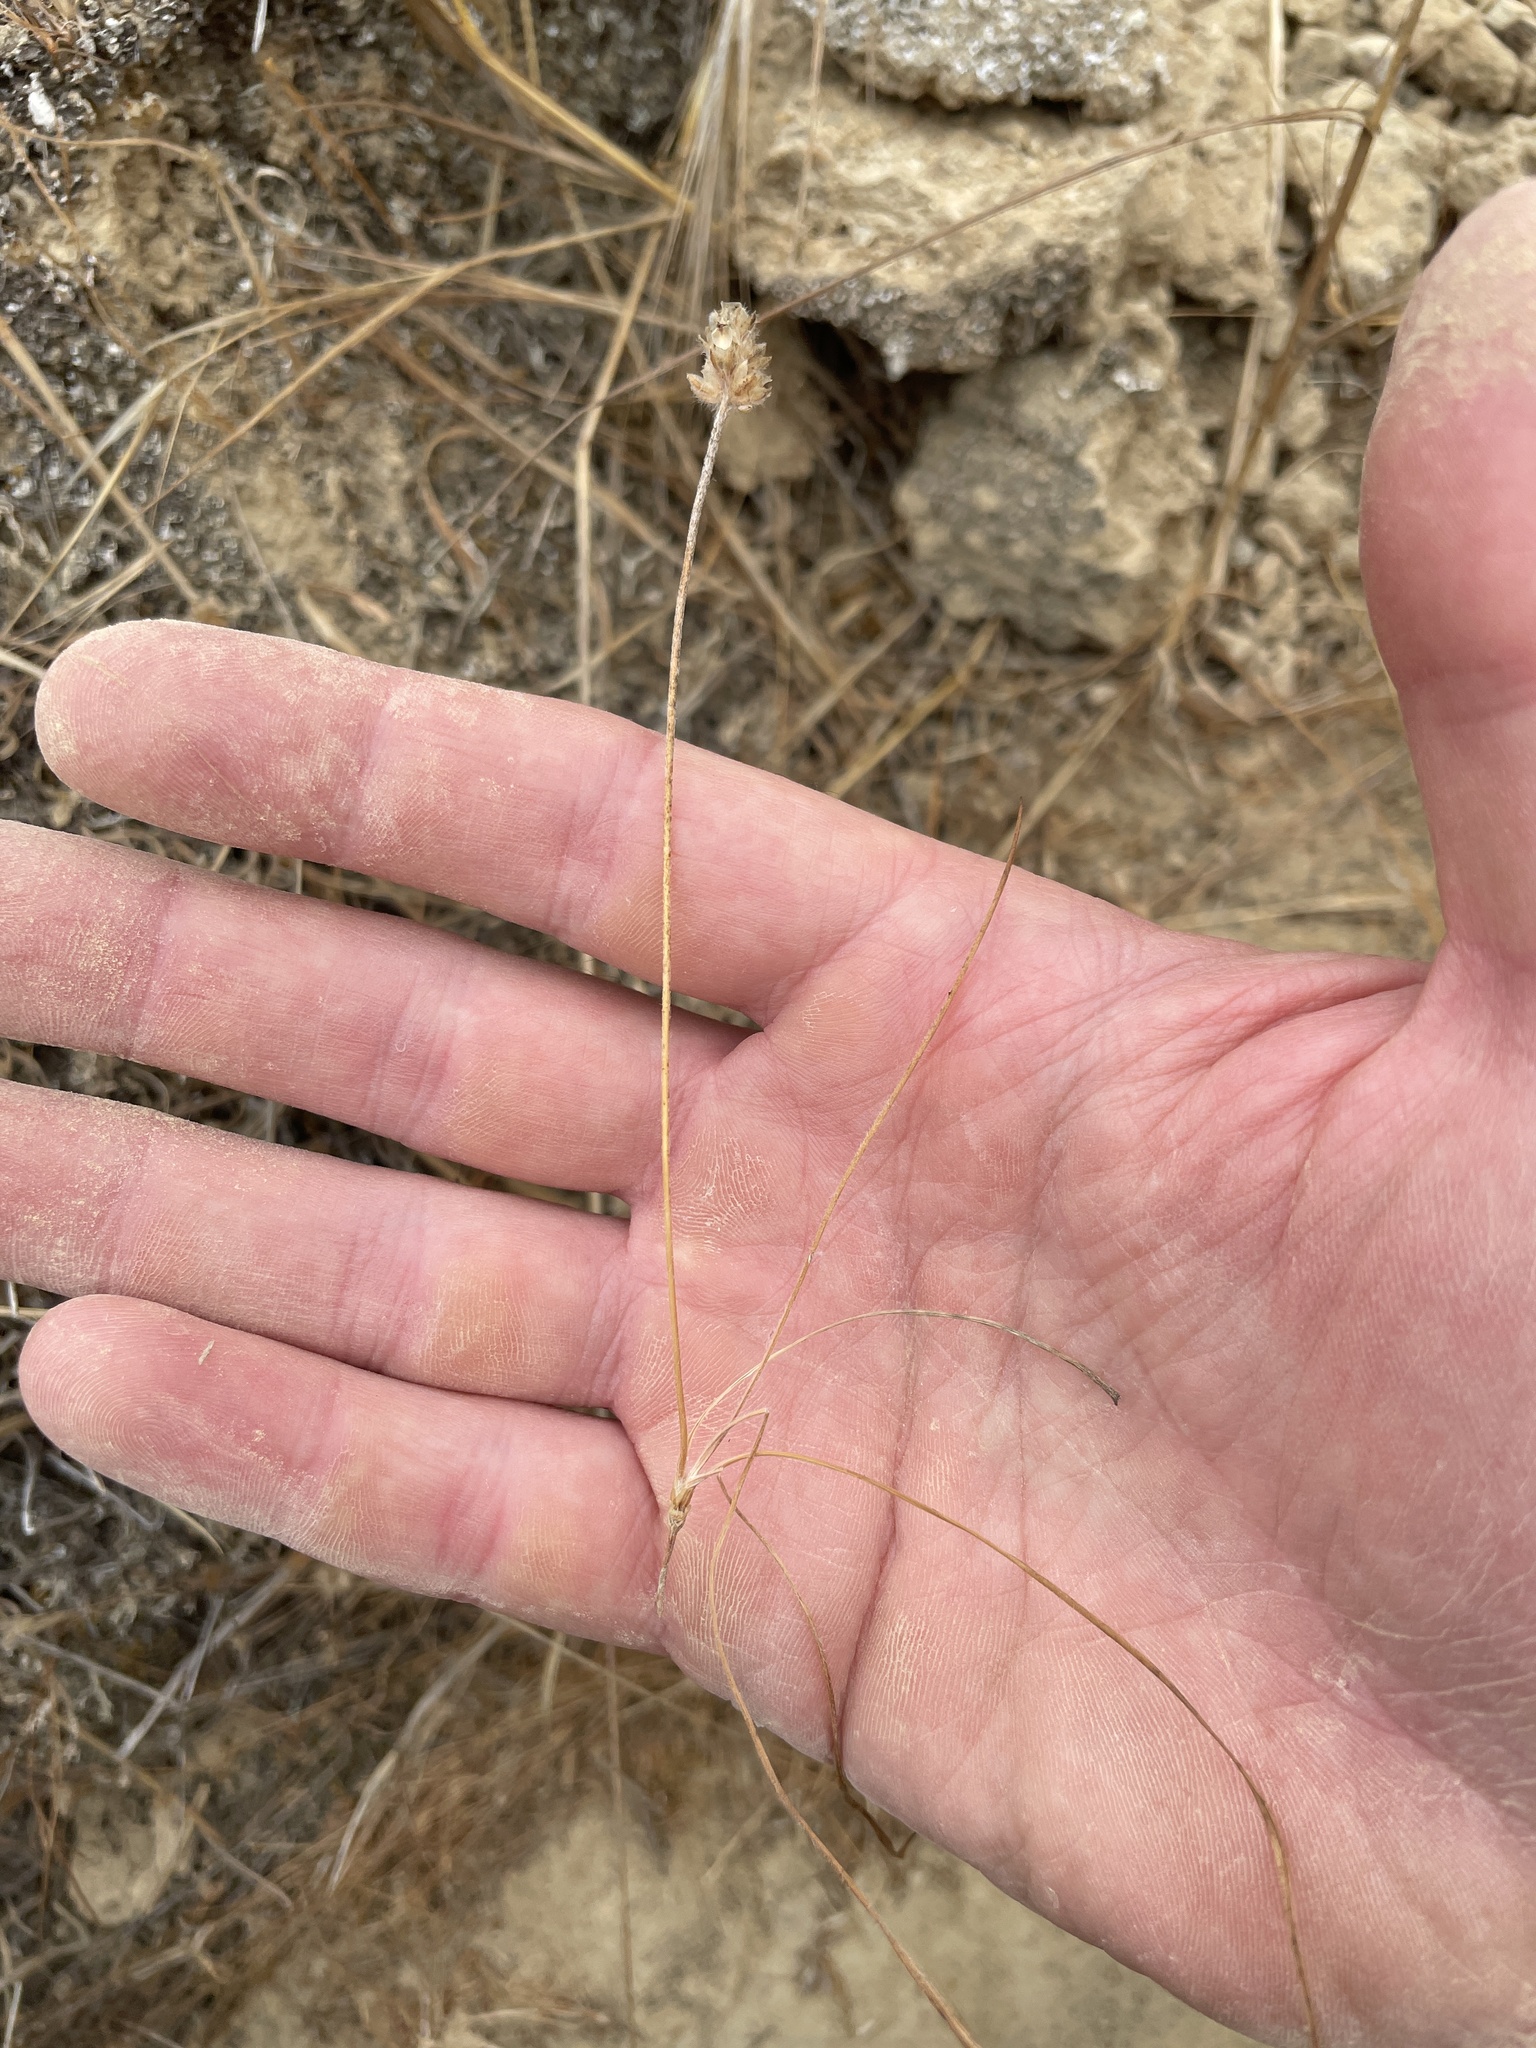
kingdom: Plantae
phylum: Tracheophyta
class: Magnoliopsida
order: Lamiales
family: Plantaginaceae
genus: Plantago
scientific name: Plantago erecta
